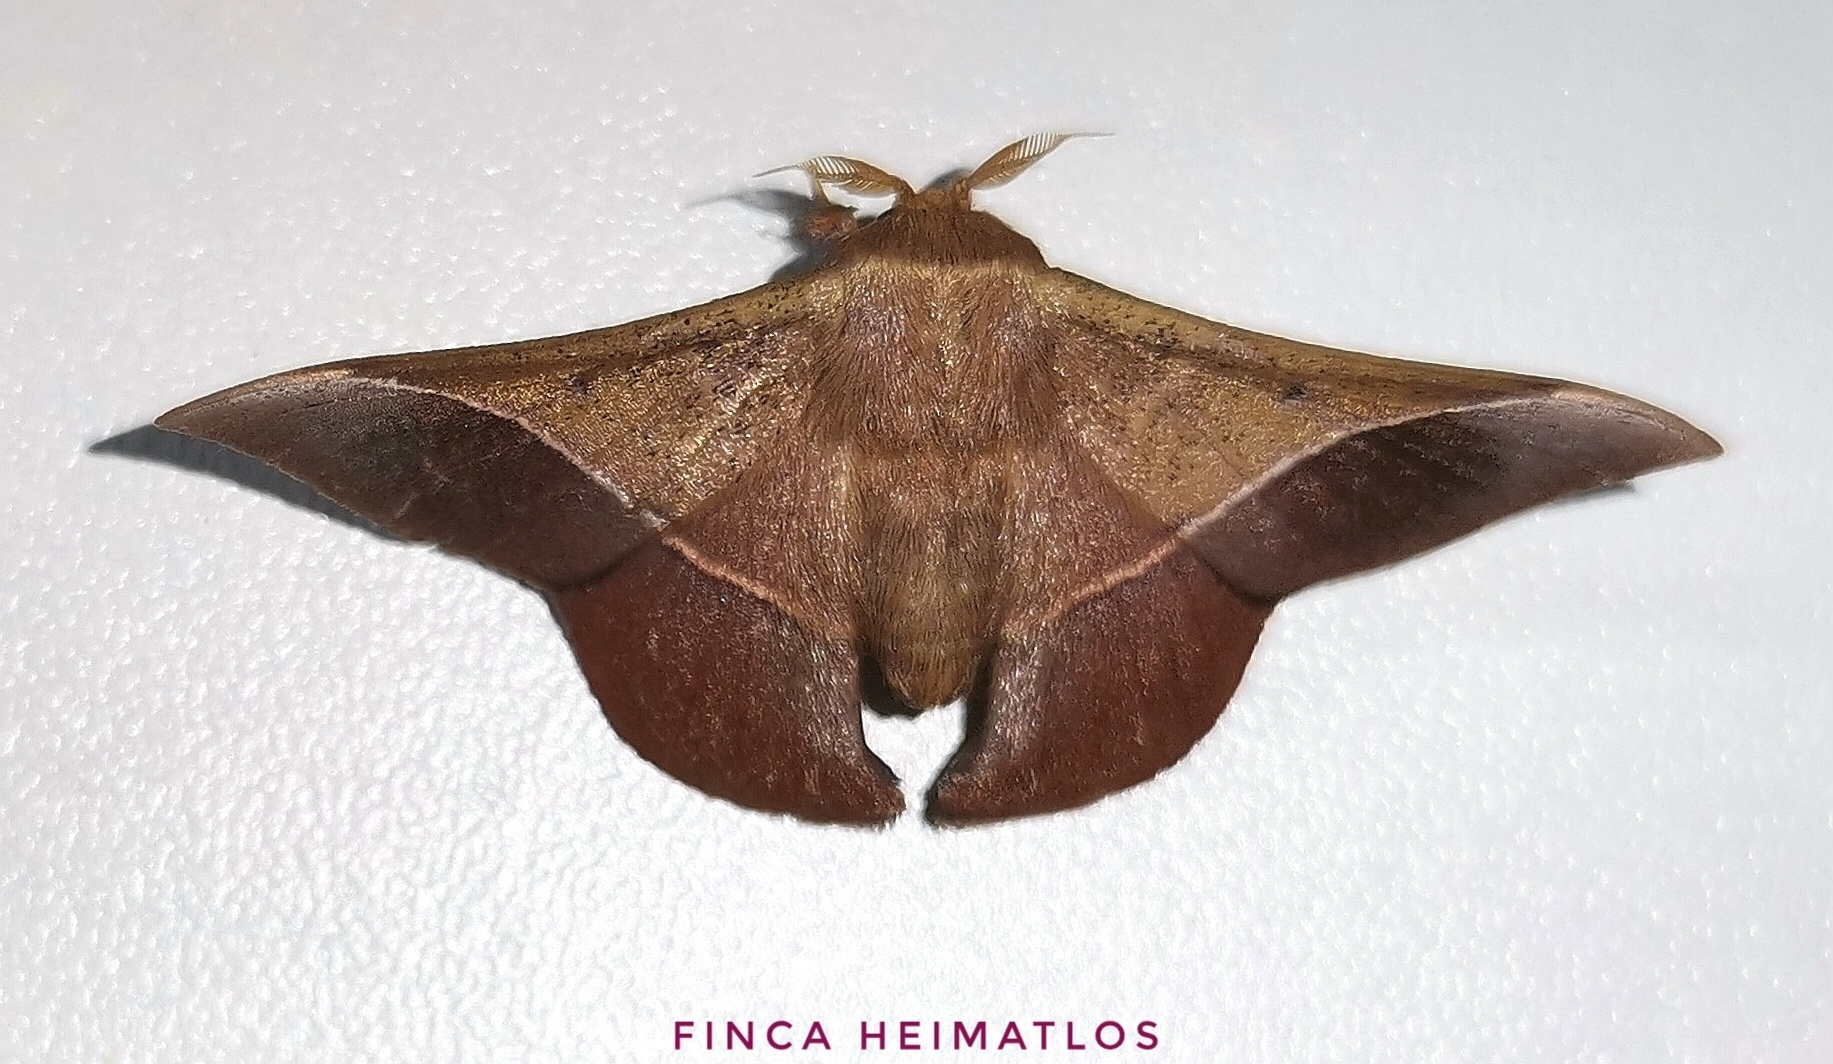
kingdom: Animalia
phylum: Arthropoda
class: Insecta
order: Lepidoptera
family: Mimallonidae
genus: Alheita
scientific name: Alheita caudina
